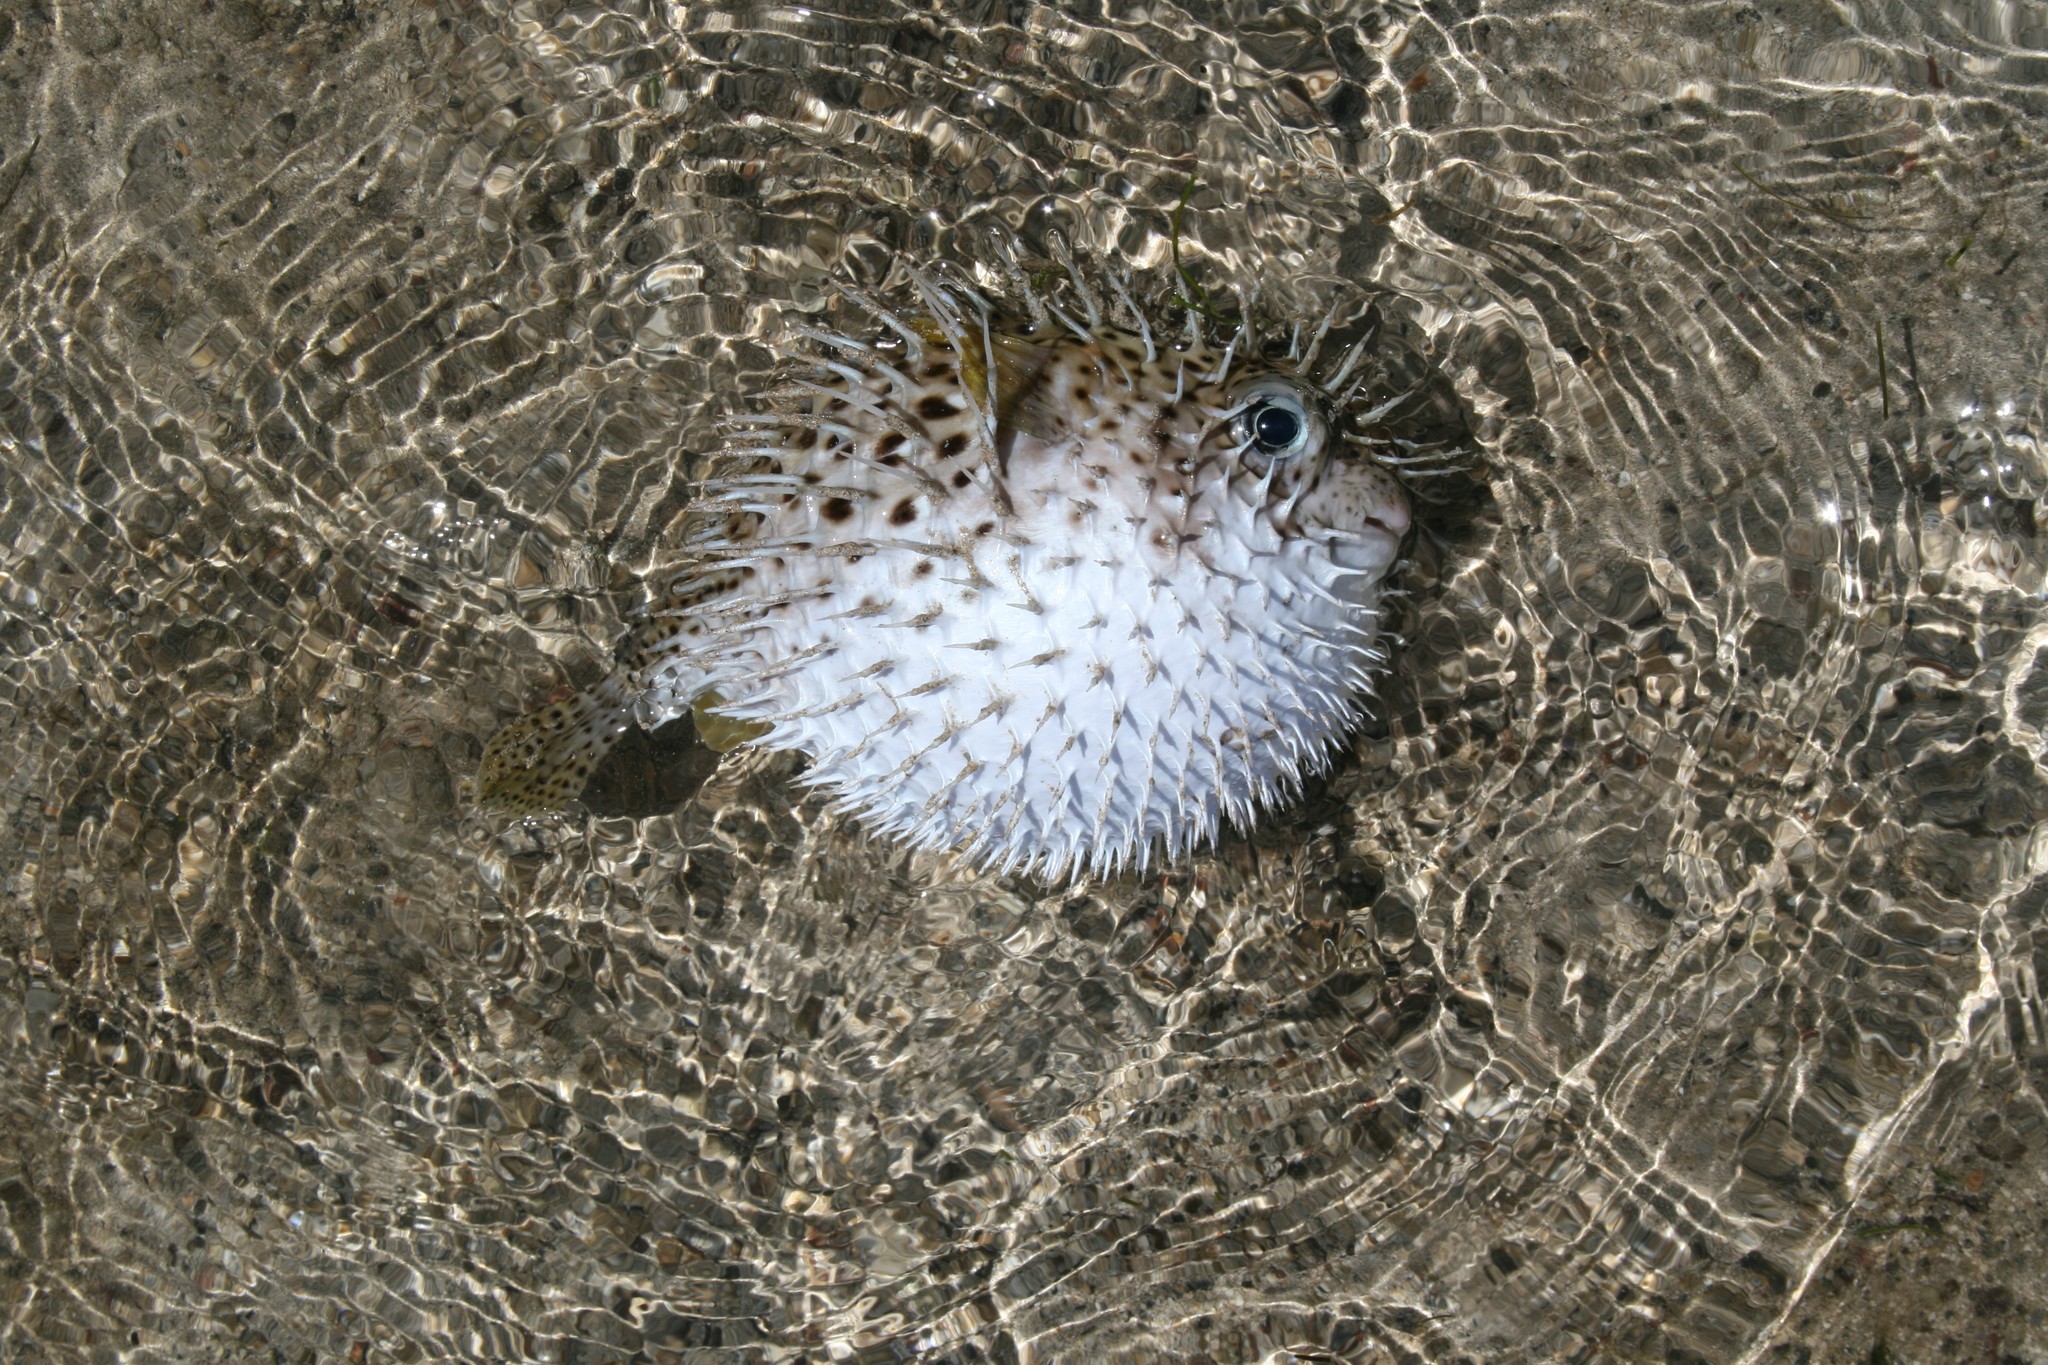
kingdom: Animalia
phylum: Chordata
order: Tetraodontiformes
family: Diodontidae
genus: Diodon
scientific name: Diodon hystrix
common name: Giant porcupinefish
